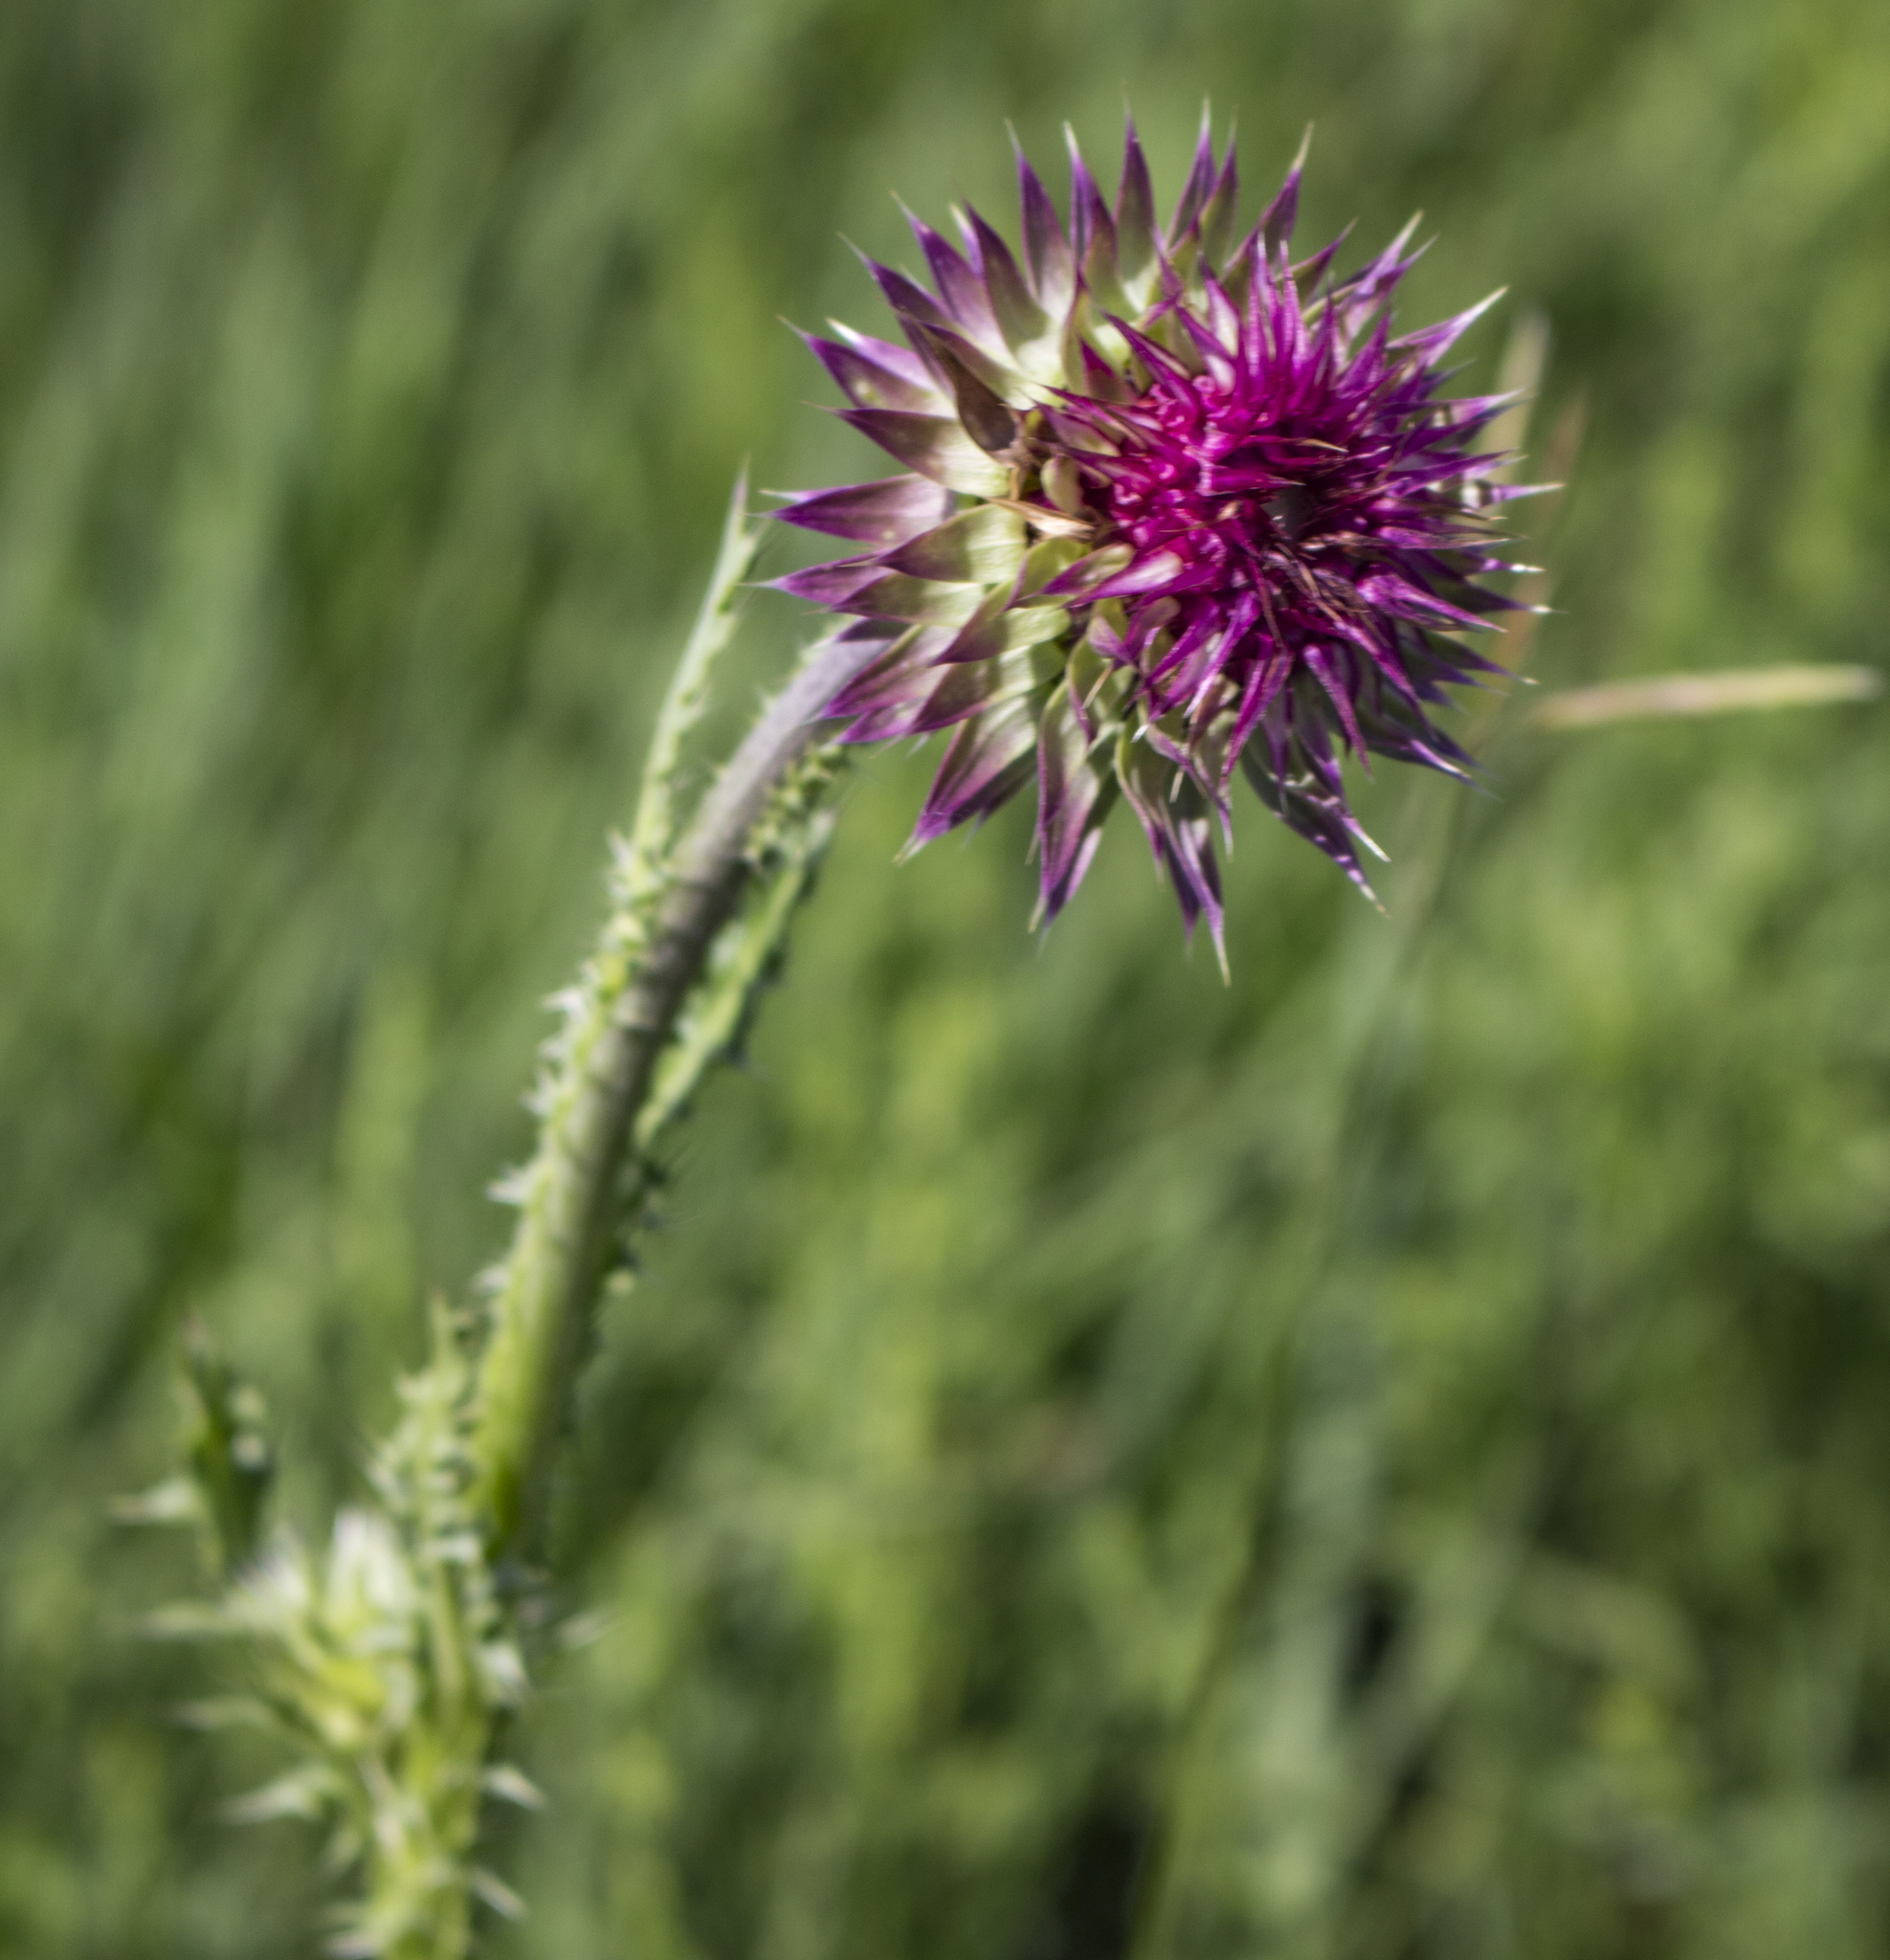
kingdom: Plantae
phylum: Tracheophyta
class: Magnoliopsida
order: Asterales
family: Asteraceae
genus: Carduus
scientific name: Carduus nutans
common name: Musk thistle
